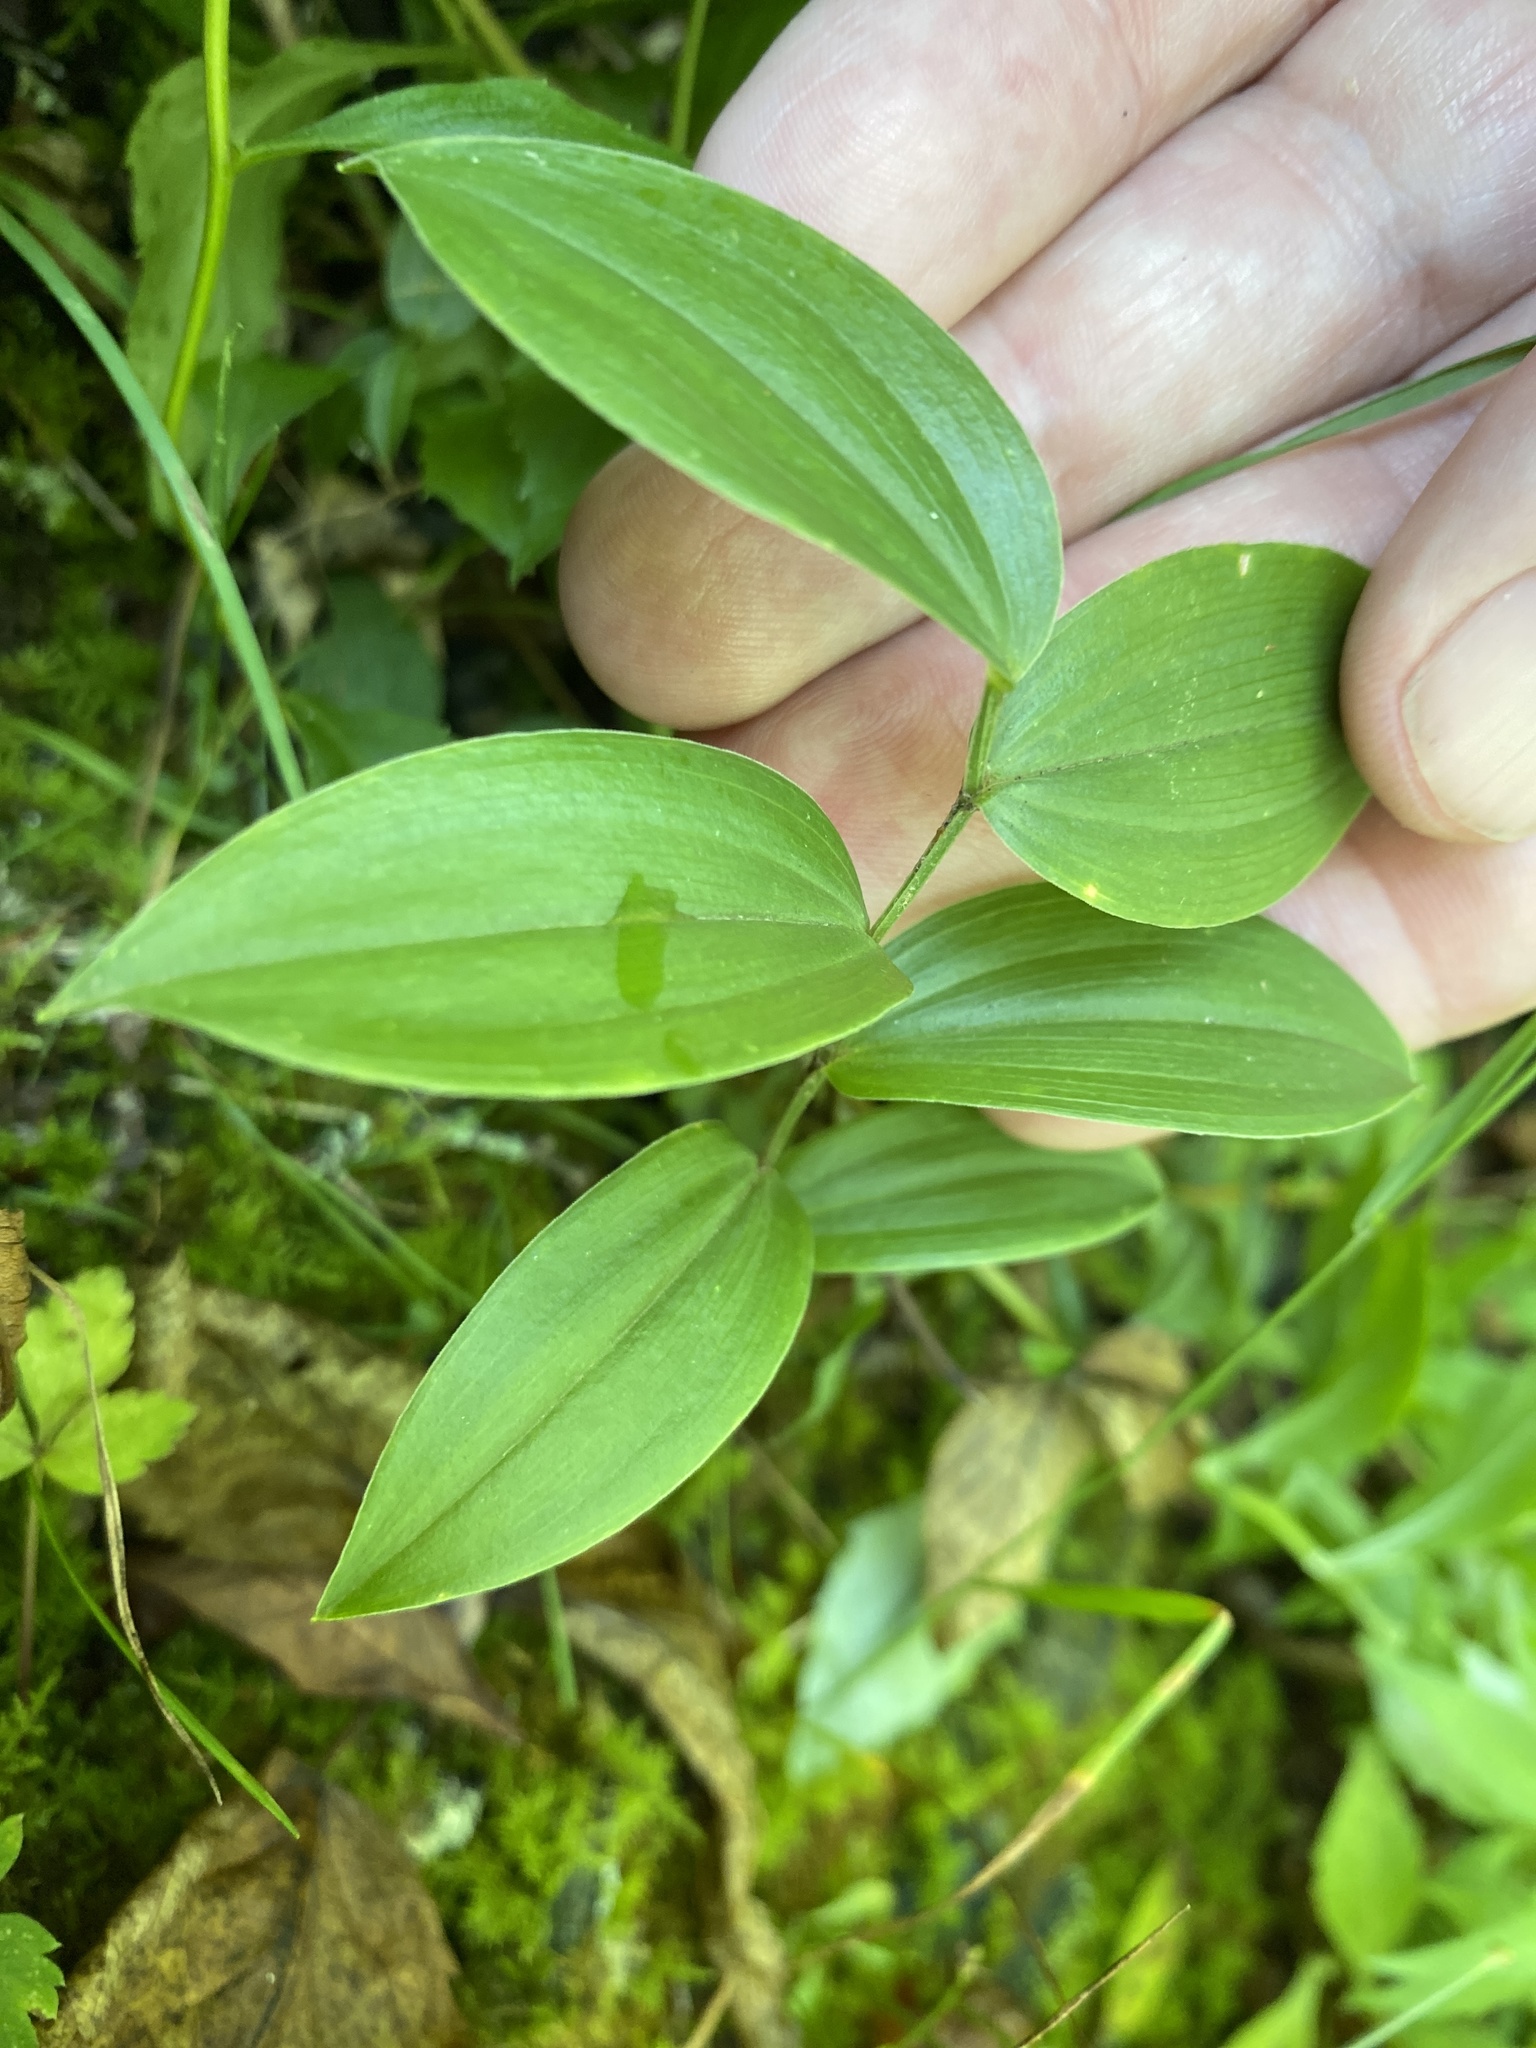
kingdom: Plantae
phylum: Tracheophyta
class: Liliopsida
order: Liliales
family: Colchicaceae
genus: Uvularia
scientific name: Uvularia puberula
